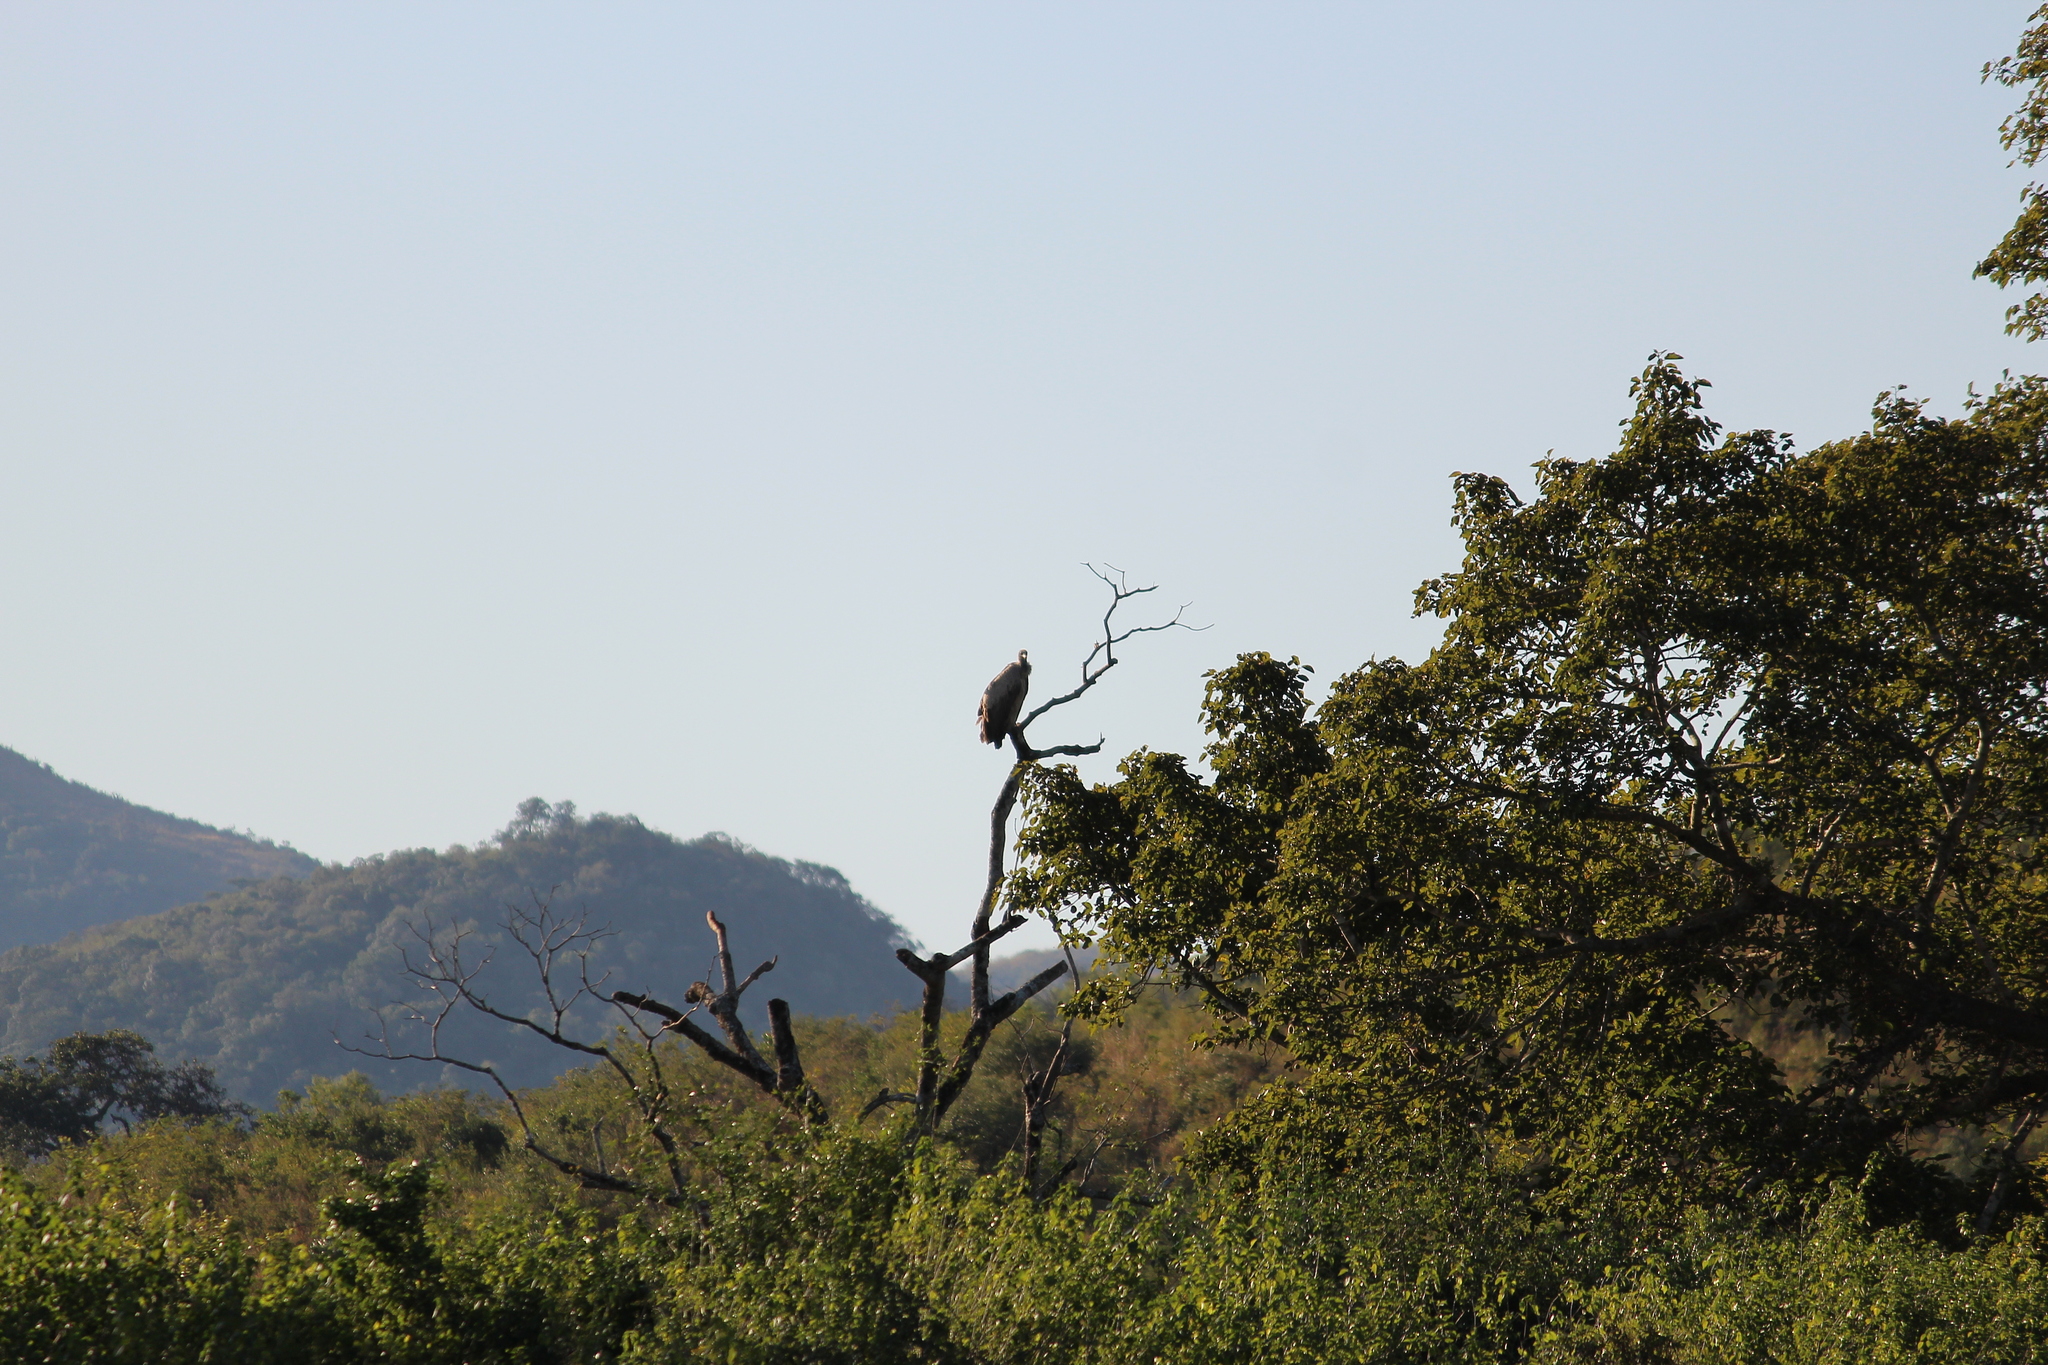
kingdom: Animalia
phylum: Chordata
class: Aves
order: Accipitriformes
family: Accipitridae
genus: Gyps
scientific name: Gyps africanus
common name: White-backed vulture
